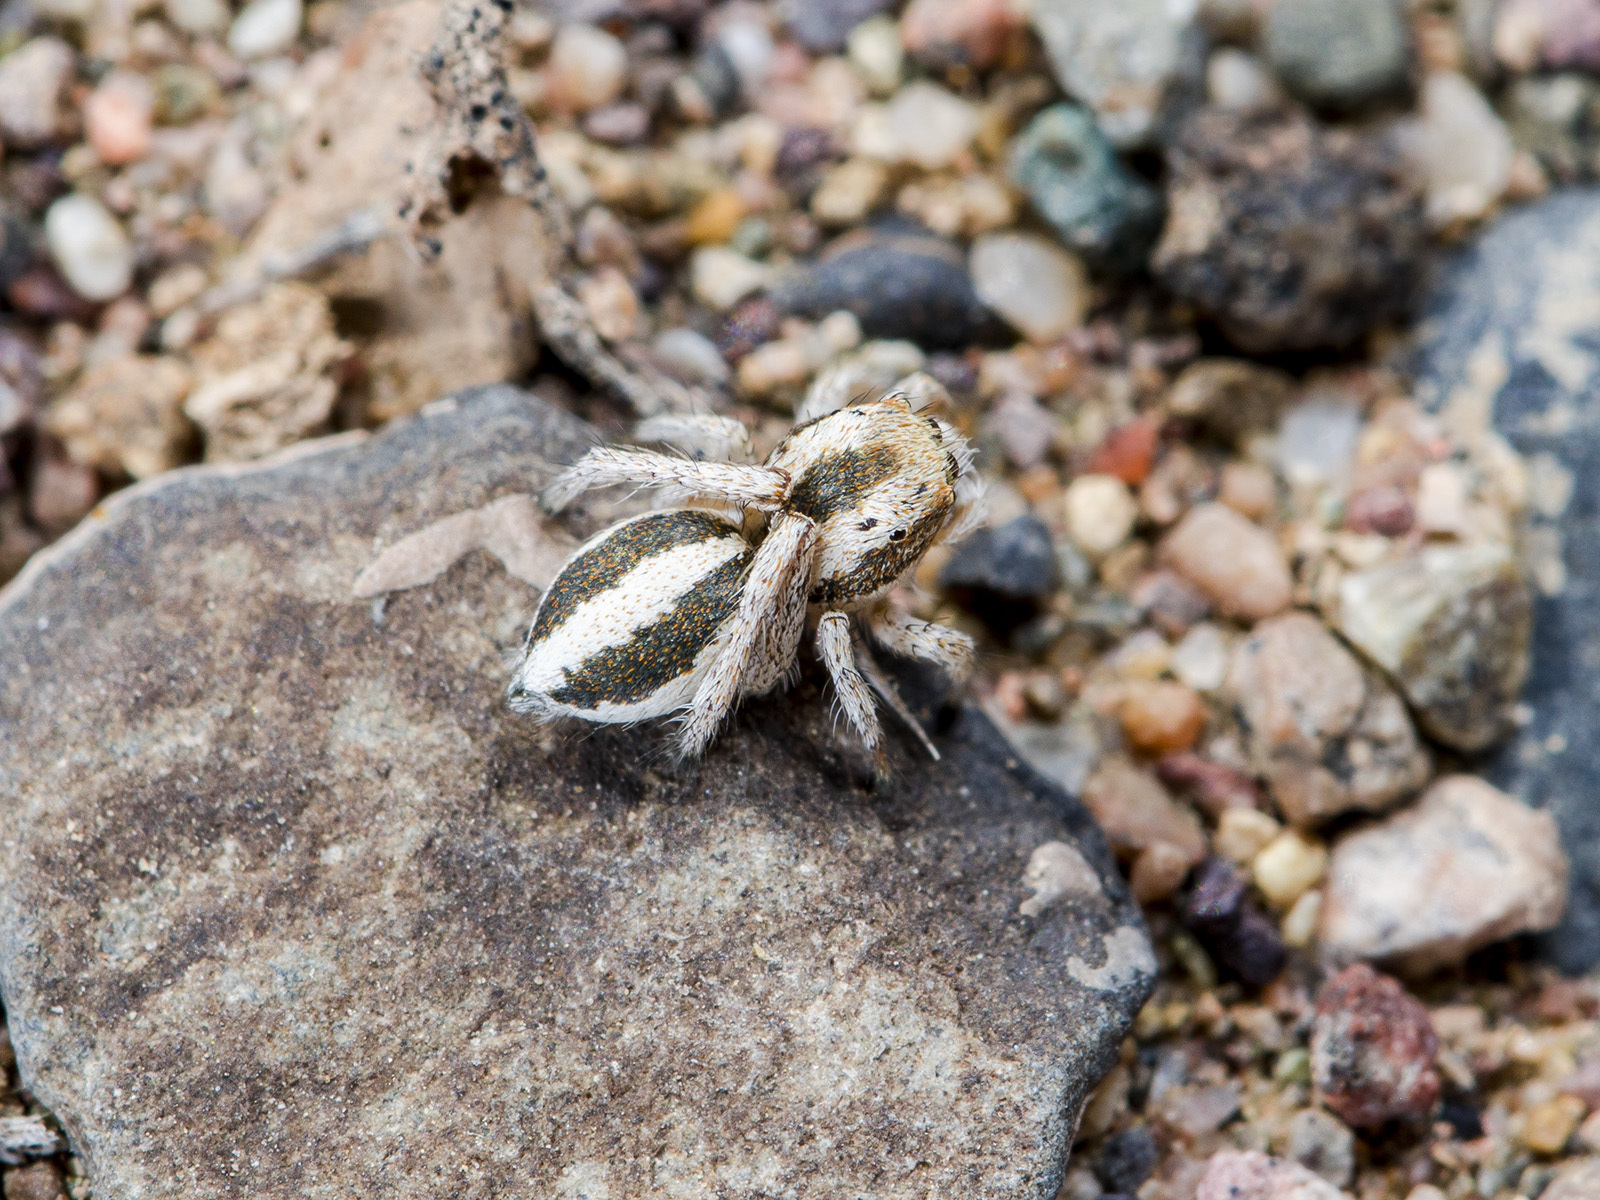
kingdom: Animalia
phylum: Arthropoda
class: Arachnida
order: Araneae
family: Salticidae
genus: Pseudomogrus
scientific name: Pseudomogrus bucharaensis
